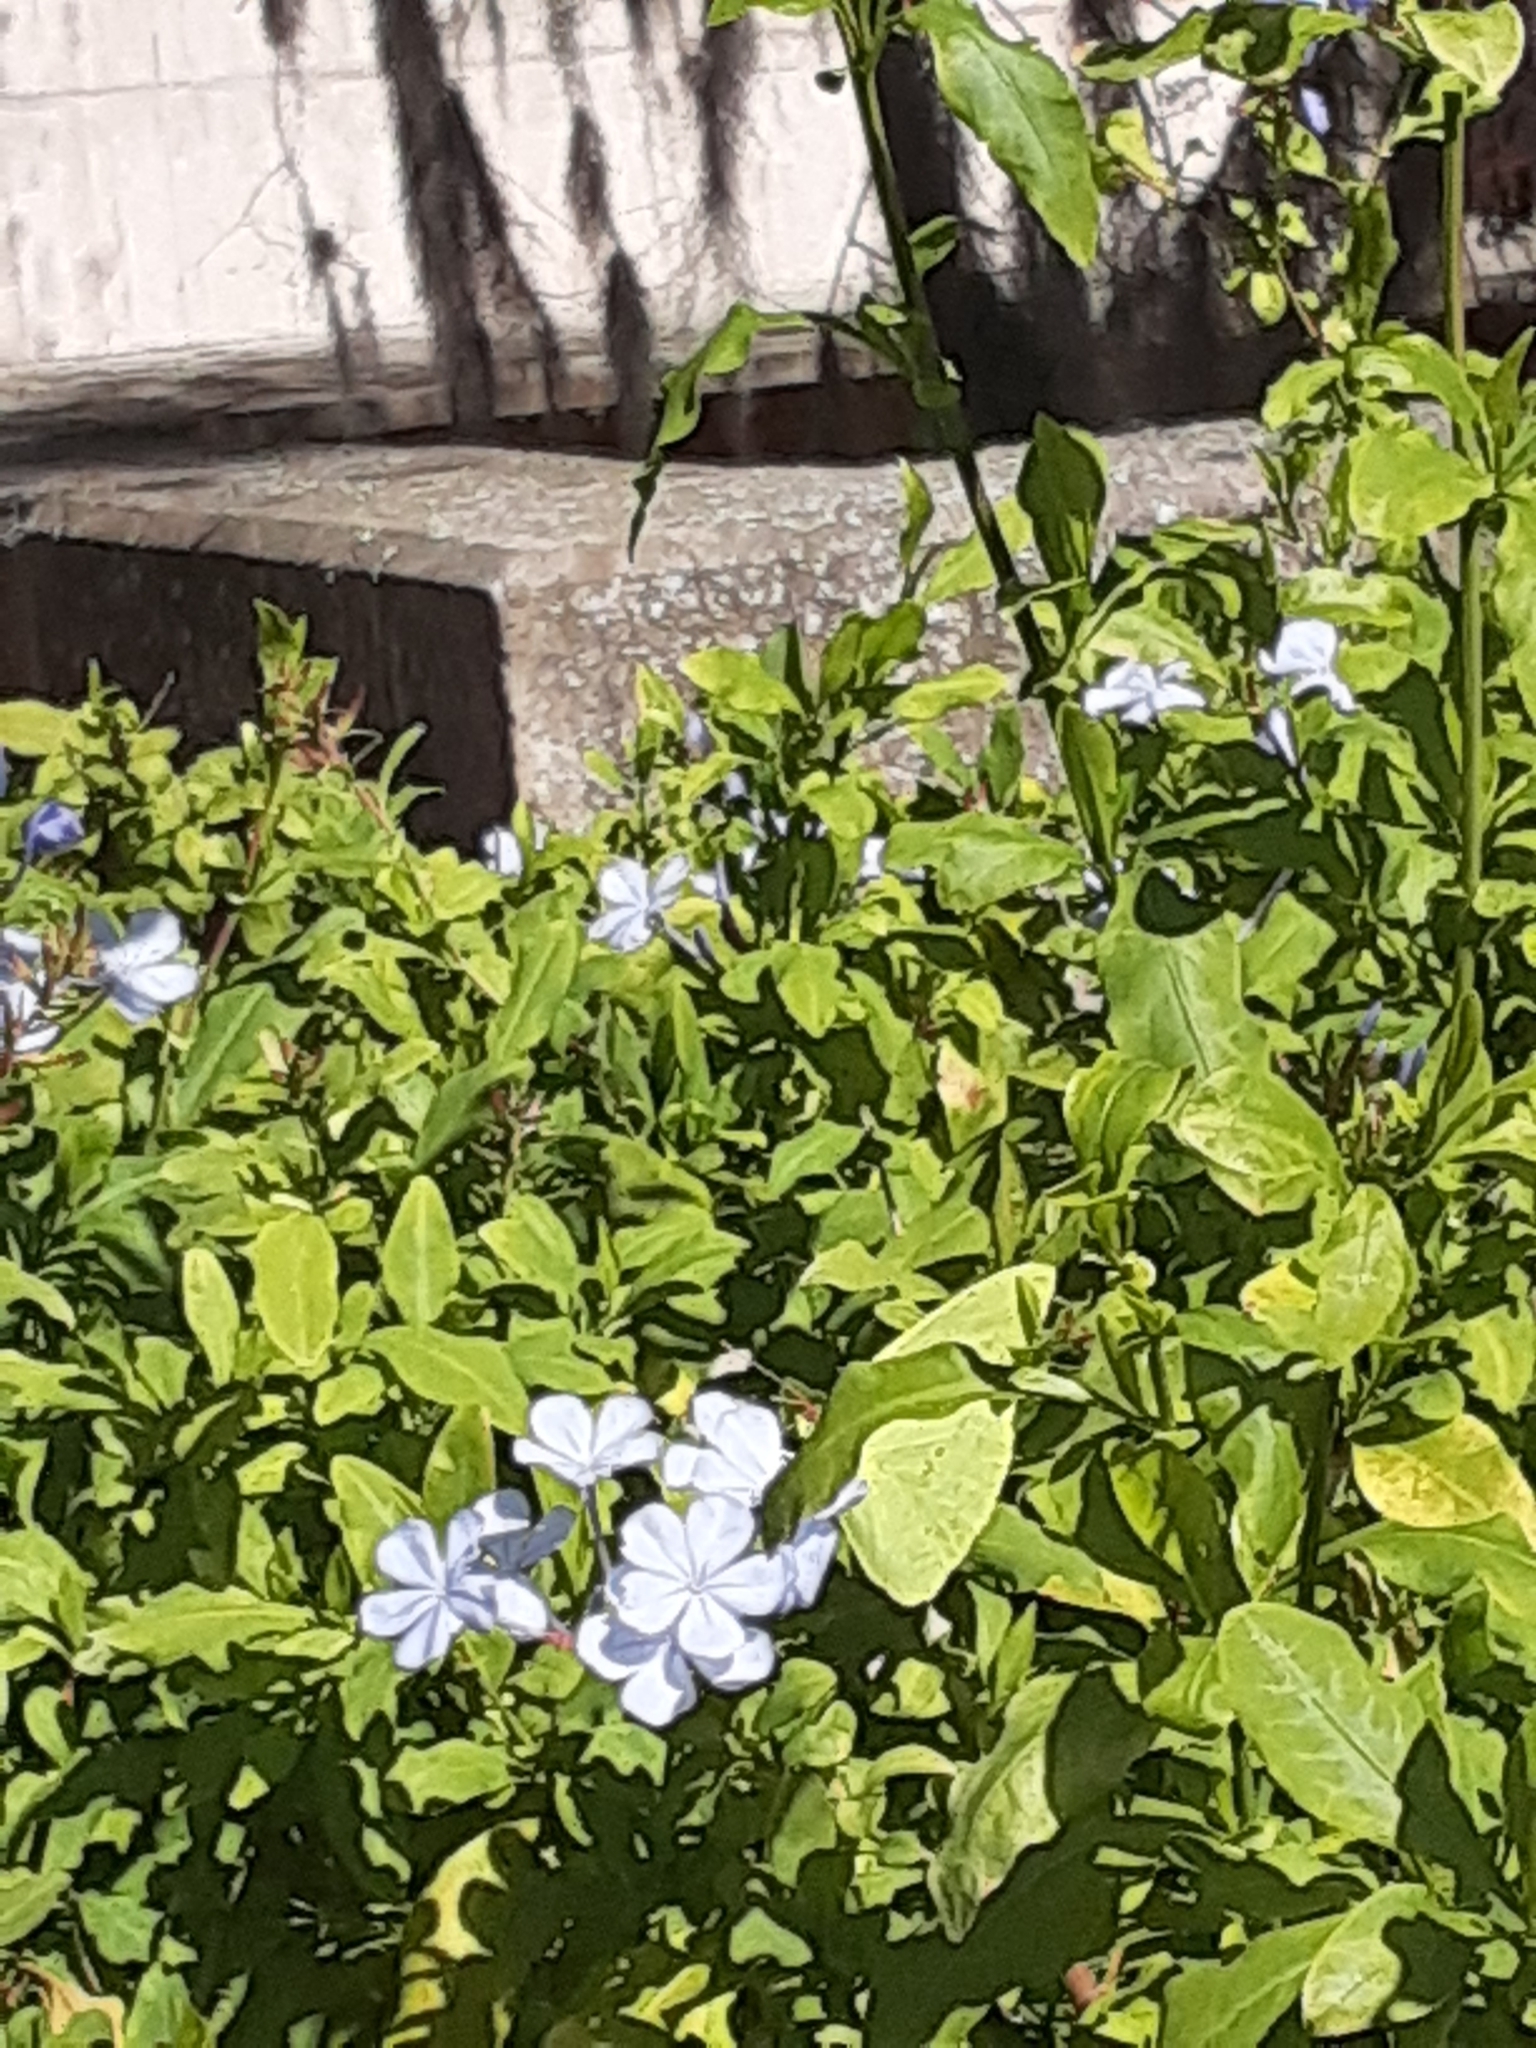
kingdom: Animalia
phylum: Arthropoda
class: Insecta
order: Lepidoptera
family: Pieridae
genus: Phoebis
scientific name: Phoebis sennae
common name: Cloudless sulphur
